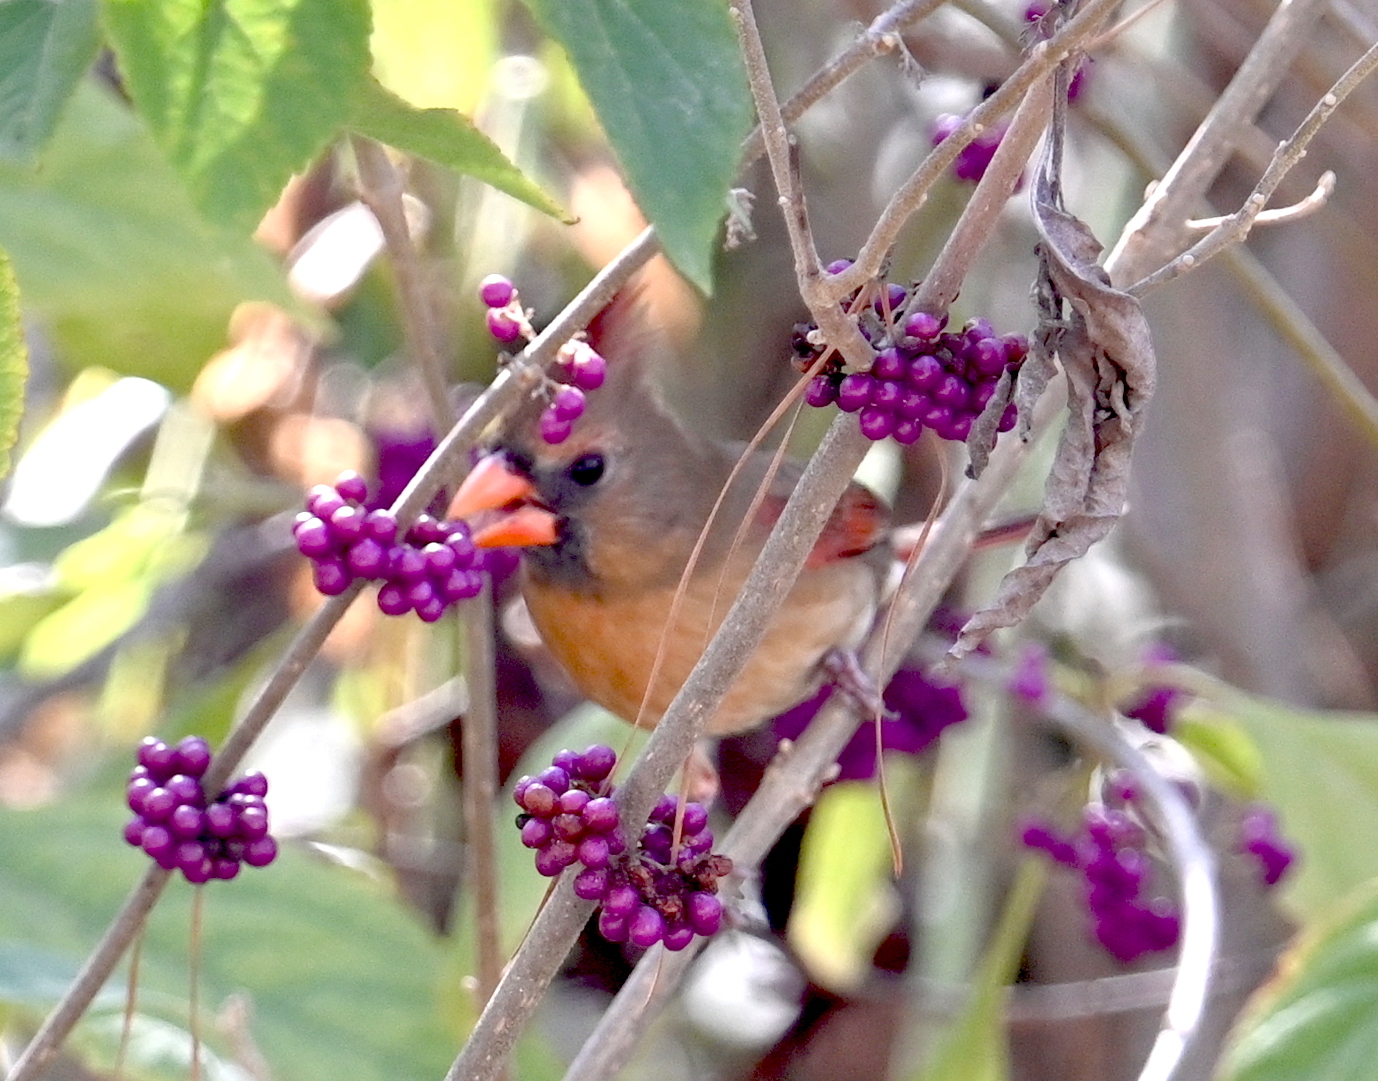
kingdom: Animalia
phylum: Chordata
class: Aves
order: Passeriformes
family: Cardinalidae
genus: Cardinalis
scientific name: Cardinalis cardinalis
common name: Northern cardinal
